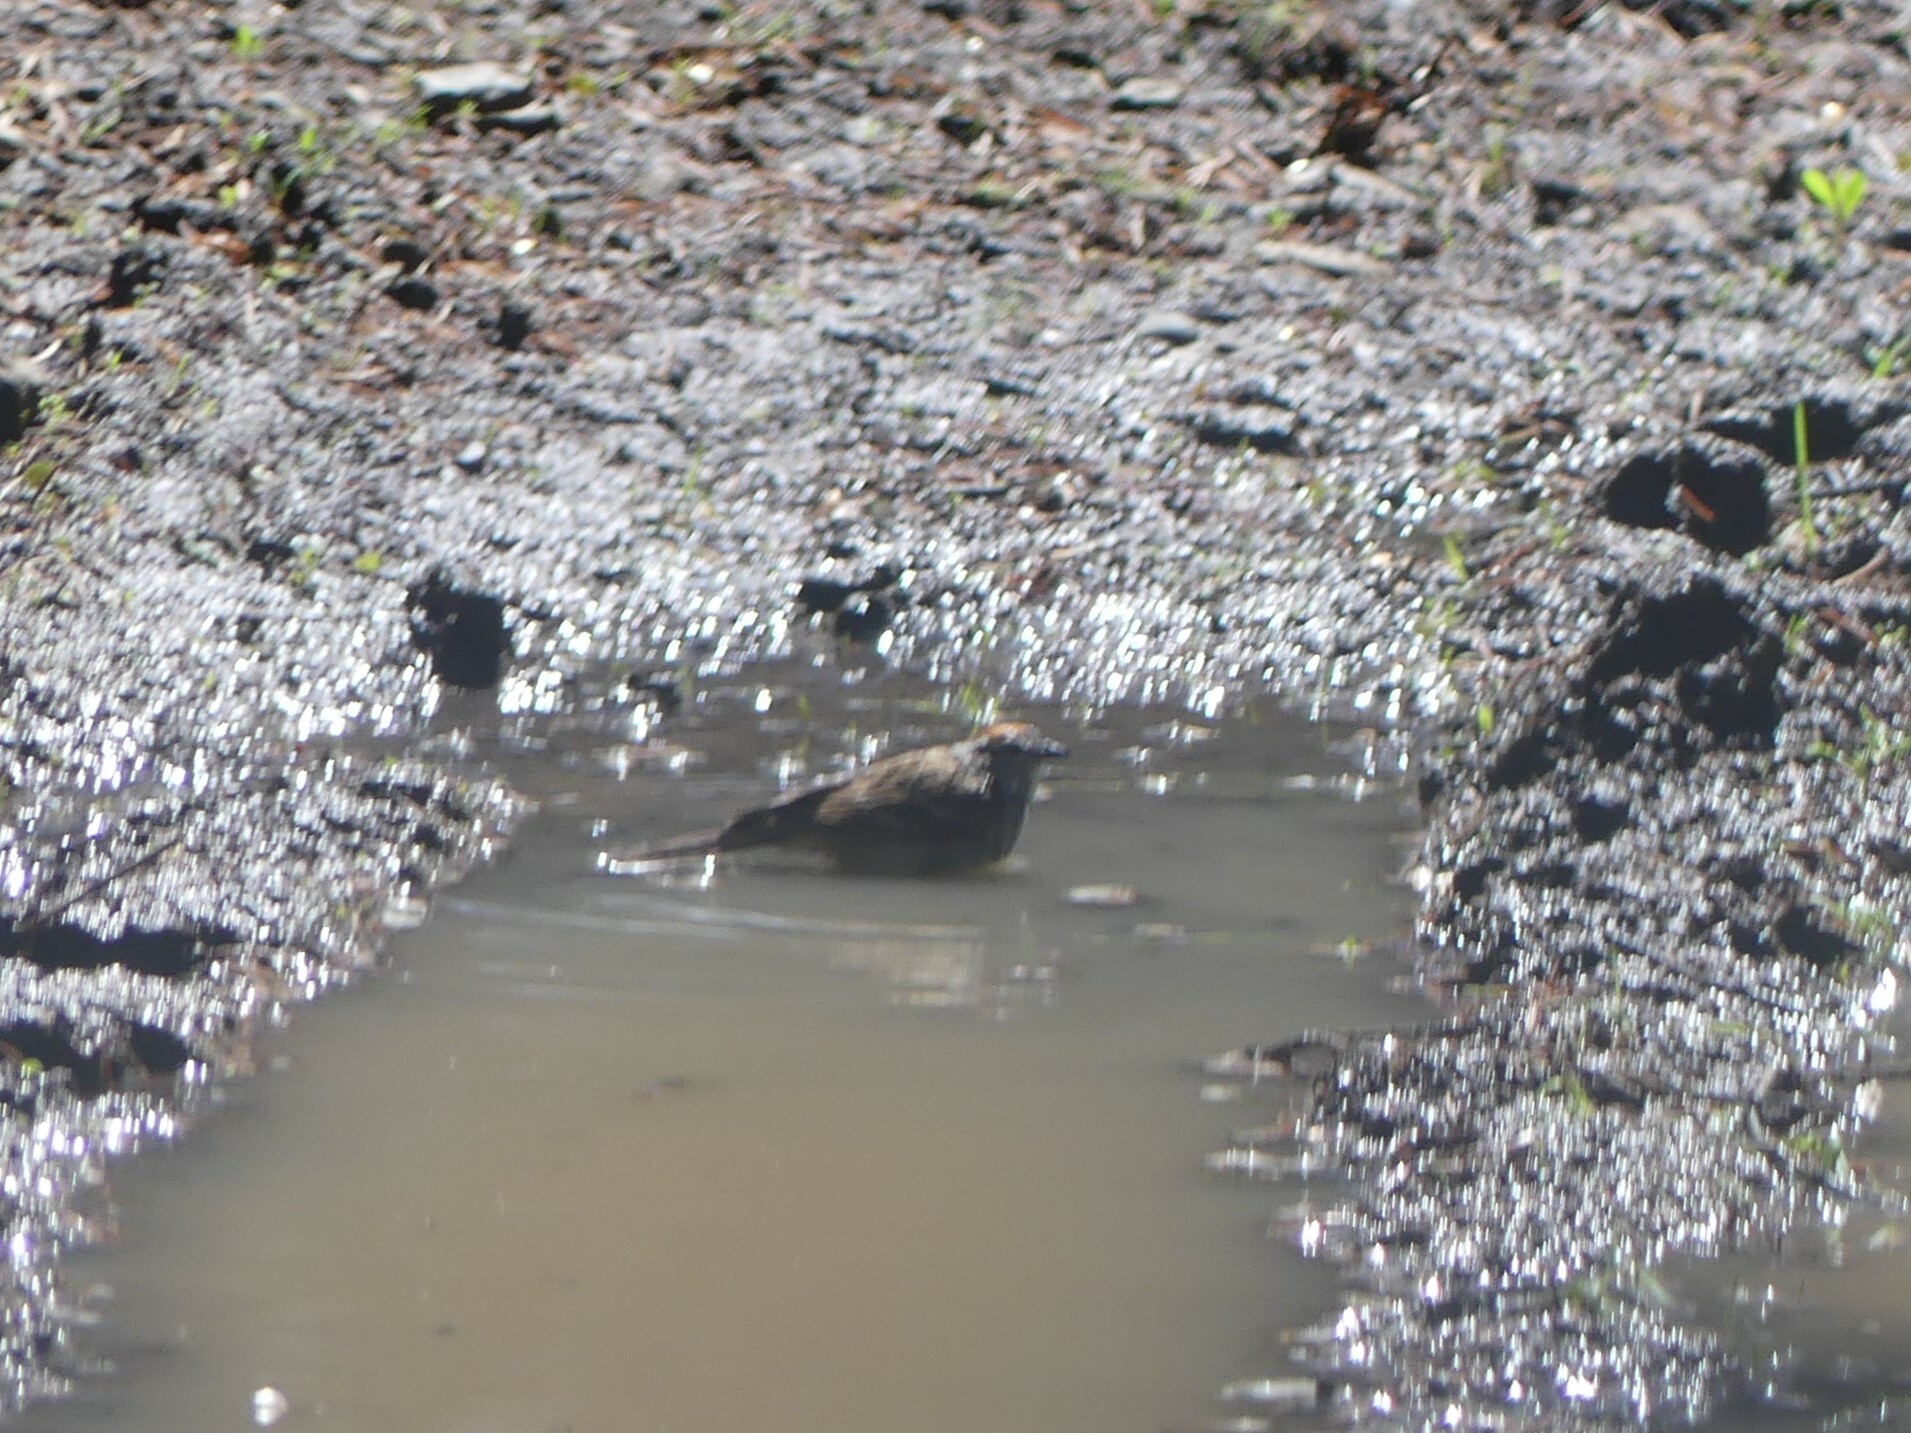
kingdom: Animalia
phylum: Chordata
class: Aves
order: Passeriformes
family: Passerellidae
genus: Spizella
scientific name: Spizella passerina
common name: Chipping sparrow
